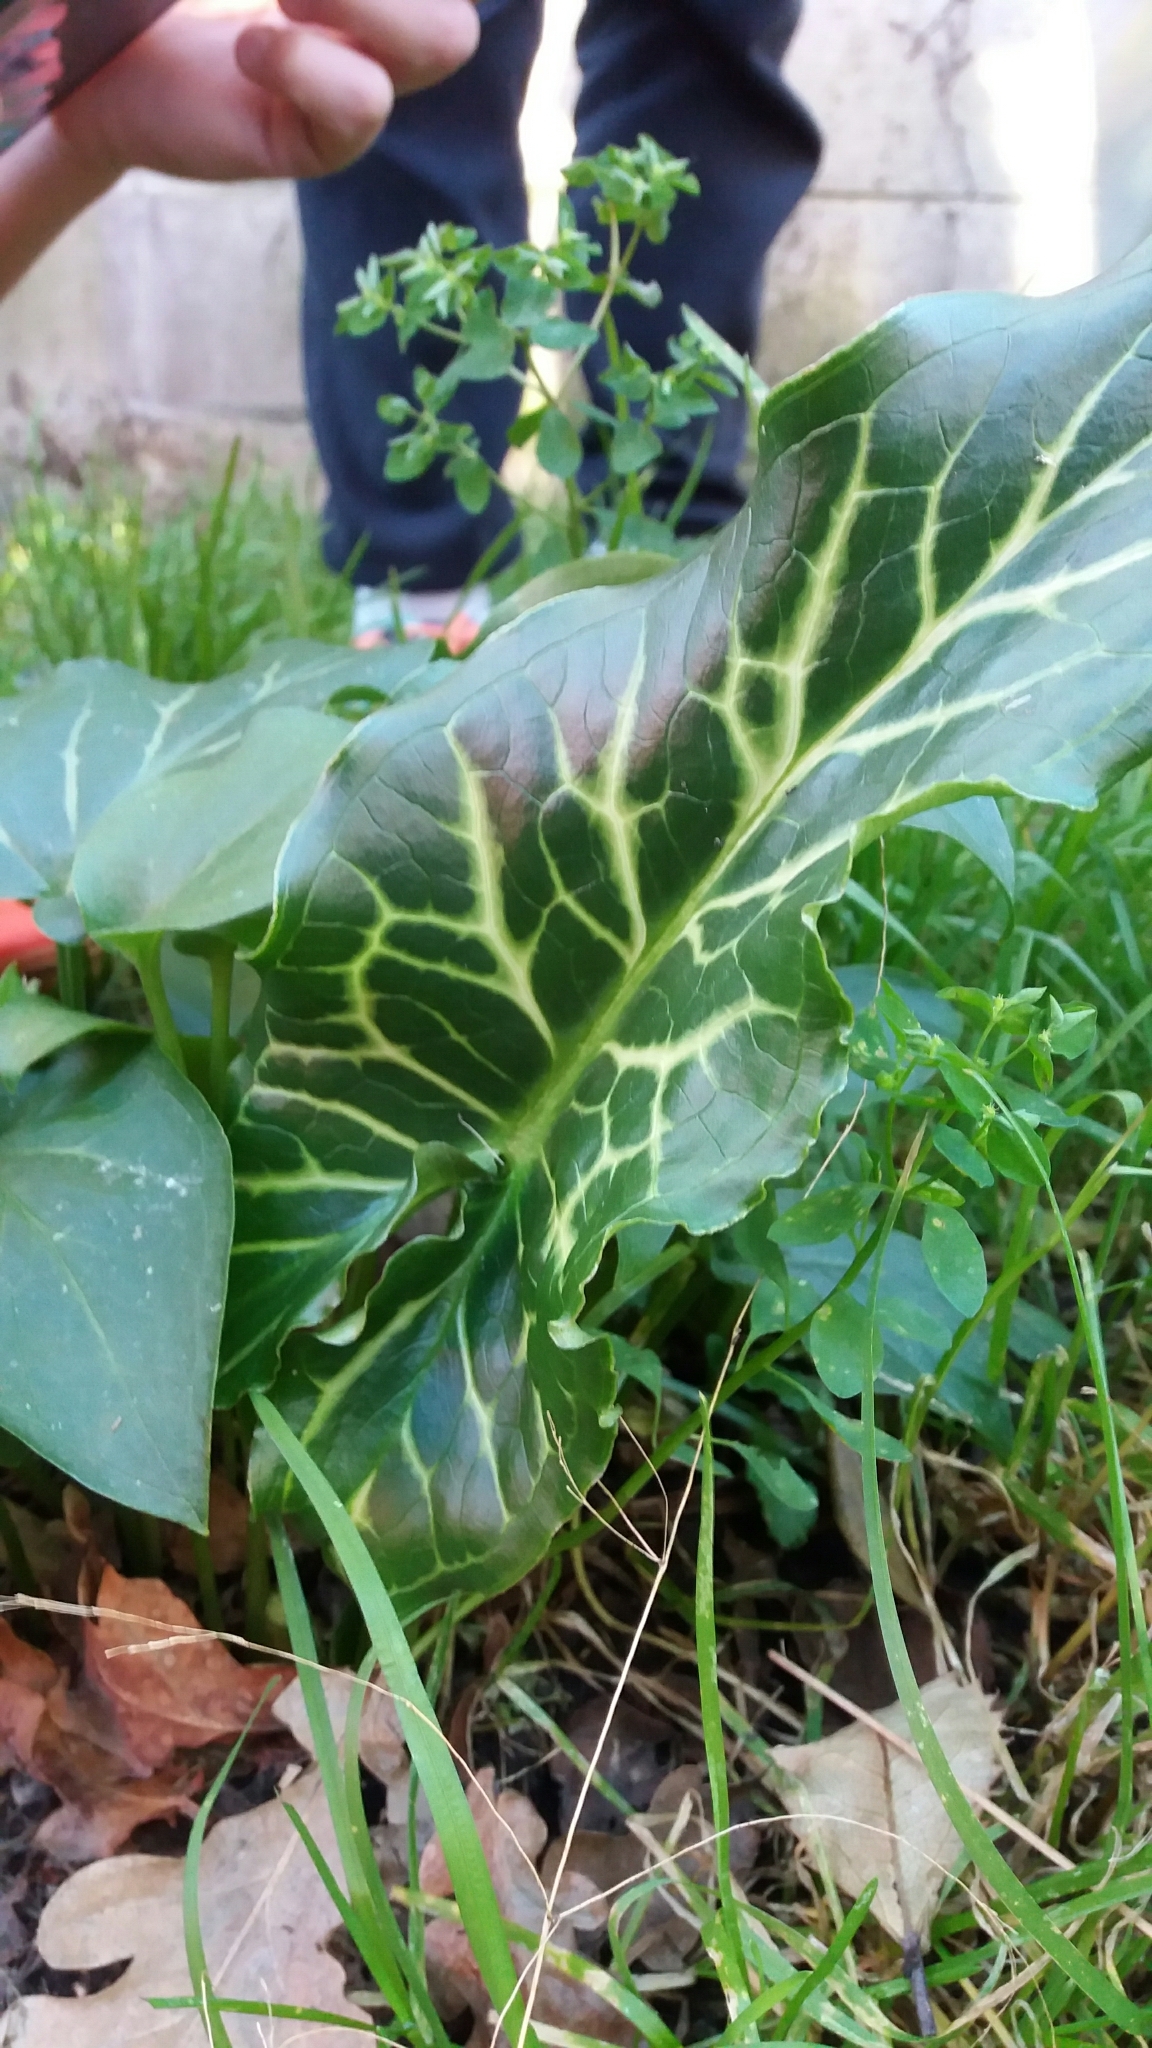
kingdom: Plantae
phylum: Tracheophyta
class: Liliopsida
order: Alismatales
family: Araceae
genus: Arum
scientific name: Arum italicum
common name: Italian lords-and-ladies
